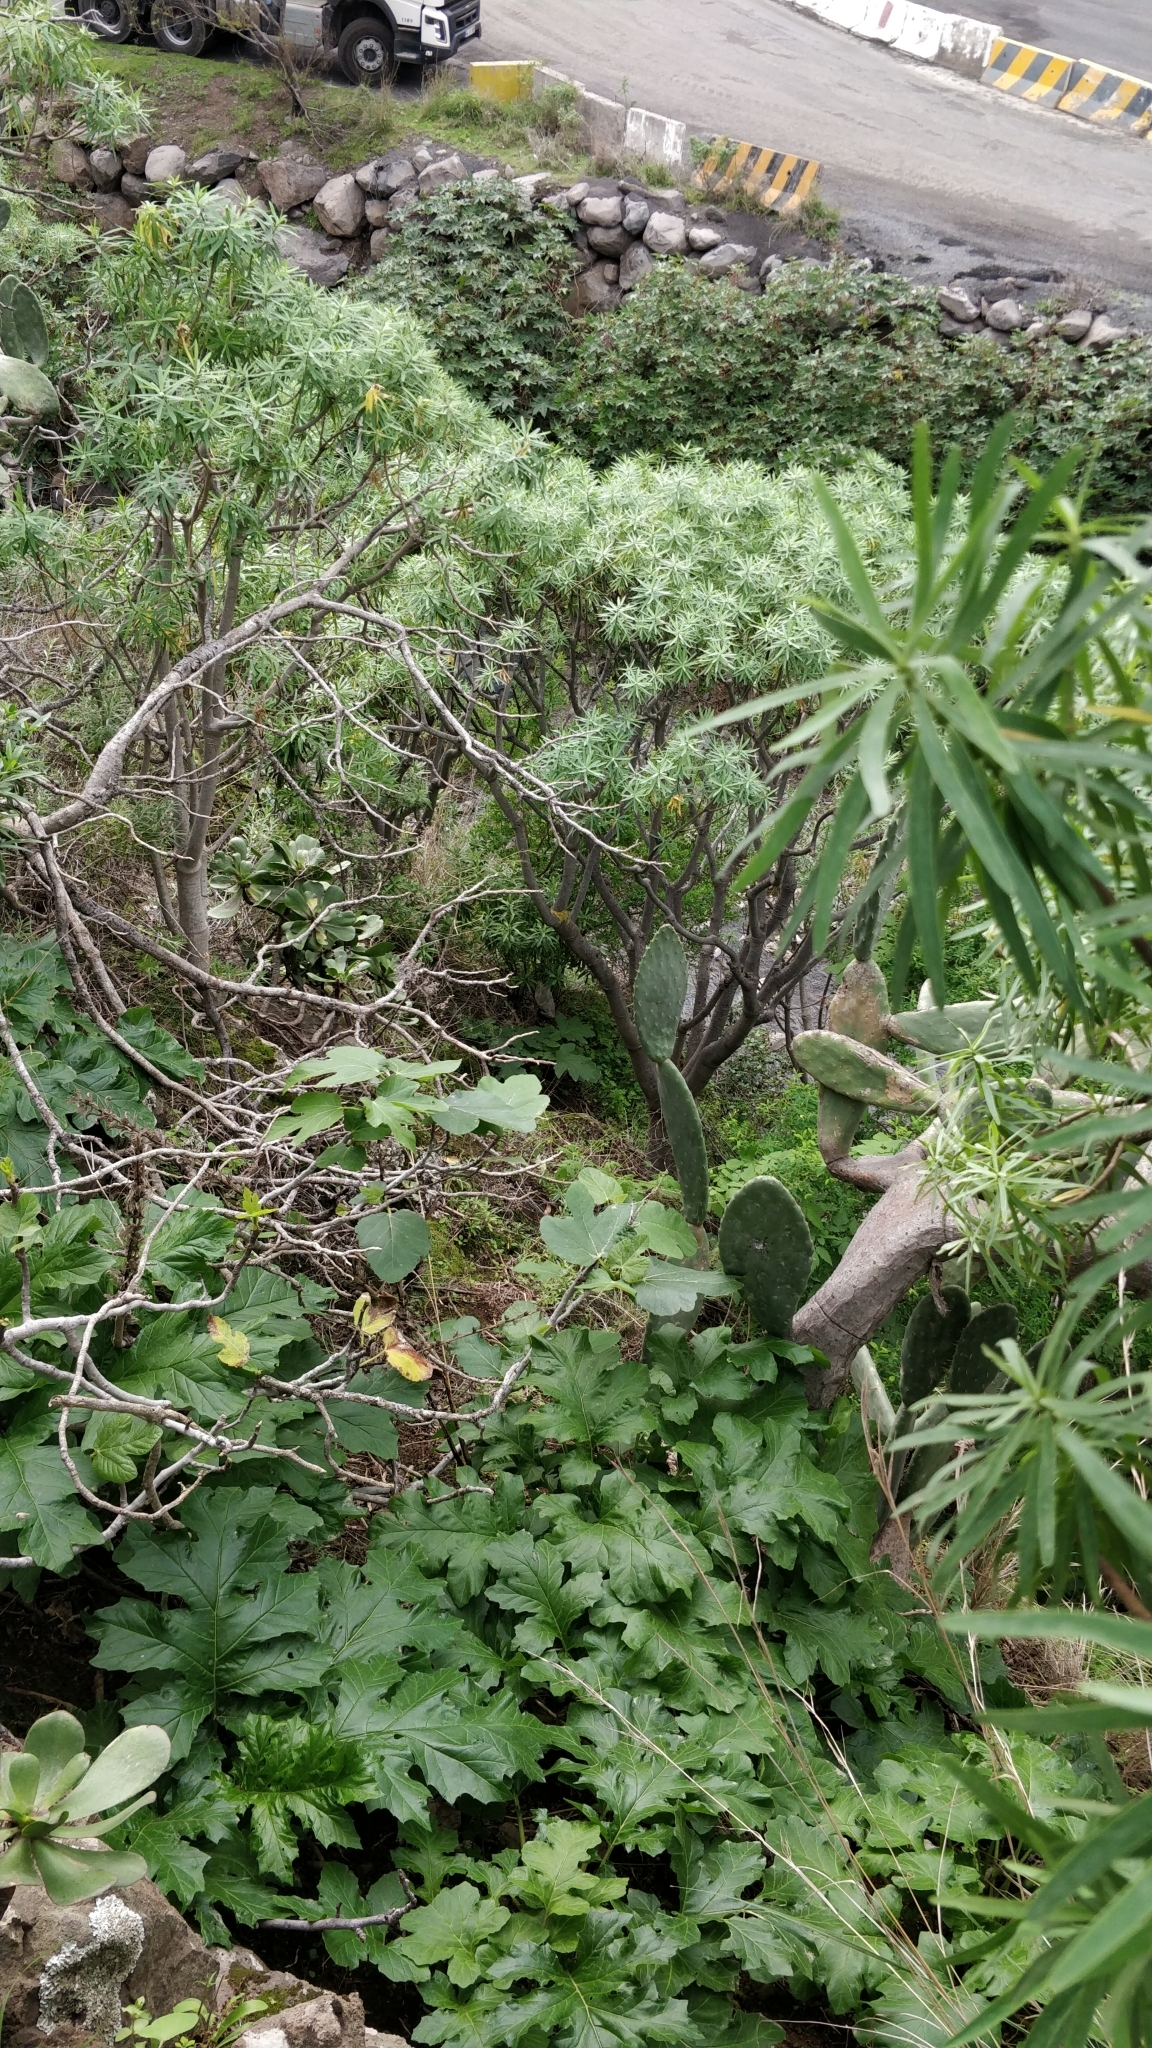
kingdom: Plantae
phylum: Tracheophyta
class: Magnoliopsida
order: Lamiales
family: Acanthaceae
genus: Acanthus
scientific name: Acanthus mollis
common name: Bear's-breech
